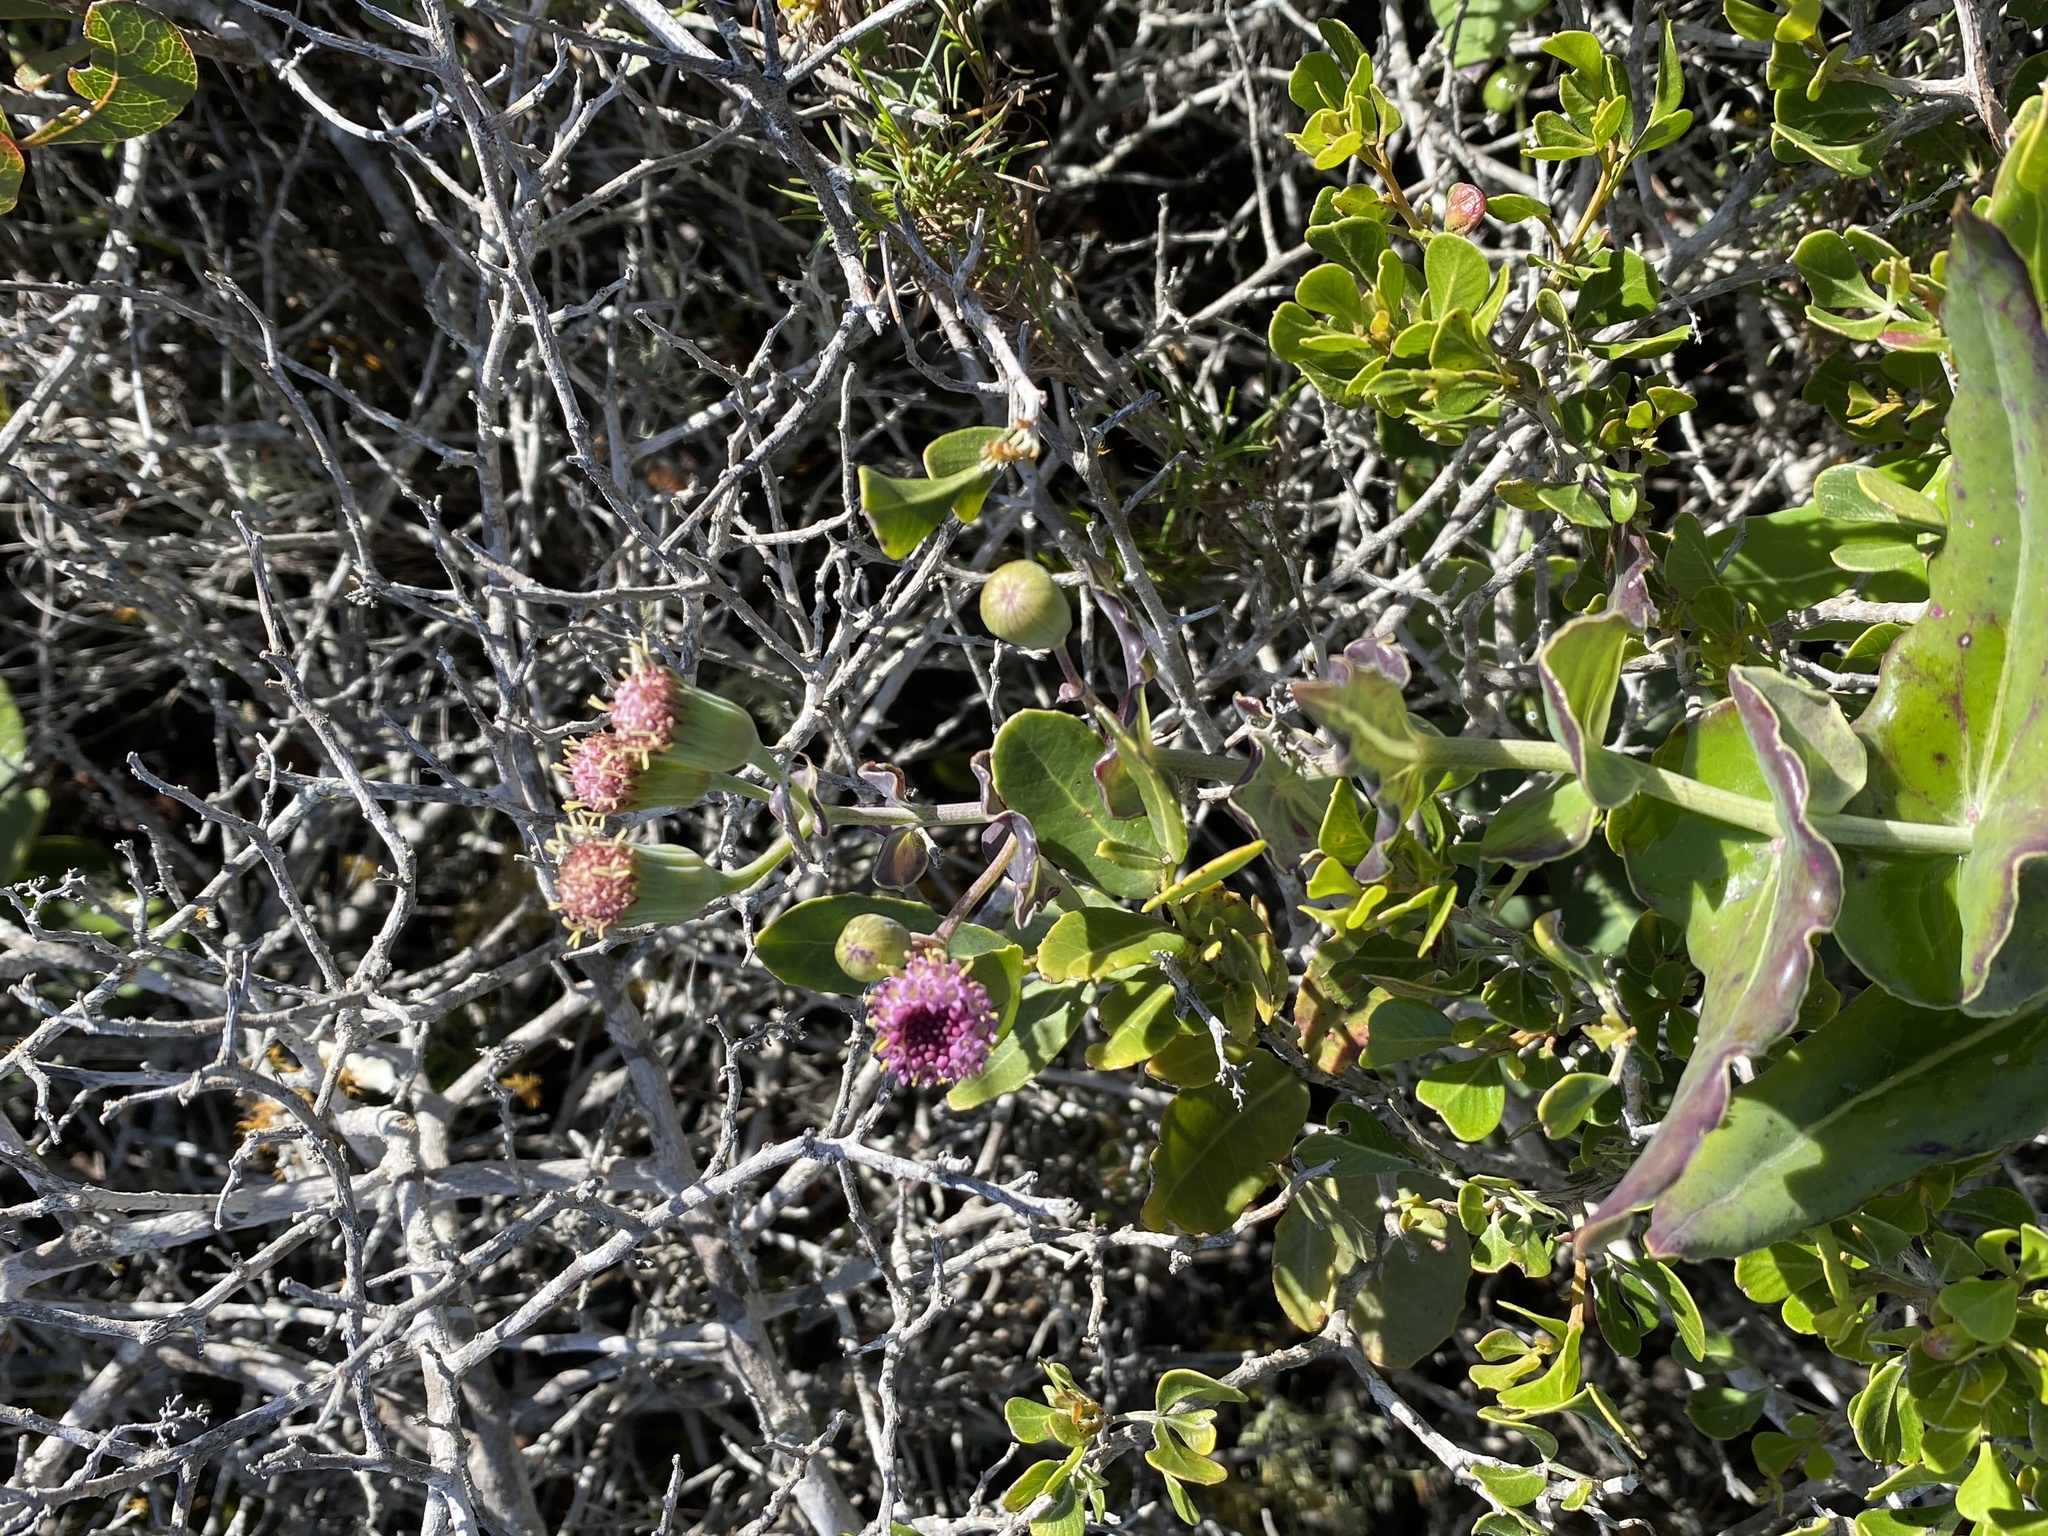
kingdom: Plantae
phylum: Tracheophyta
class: Magnoliopsida
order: Asterales
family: Asteraceae
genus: Othonna
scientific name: Othonna undulosa
